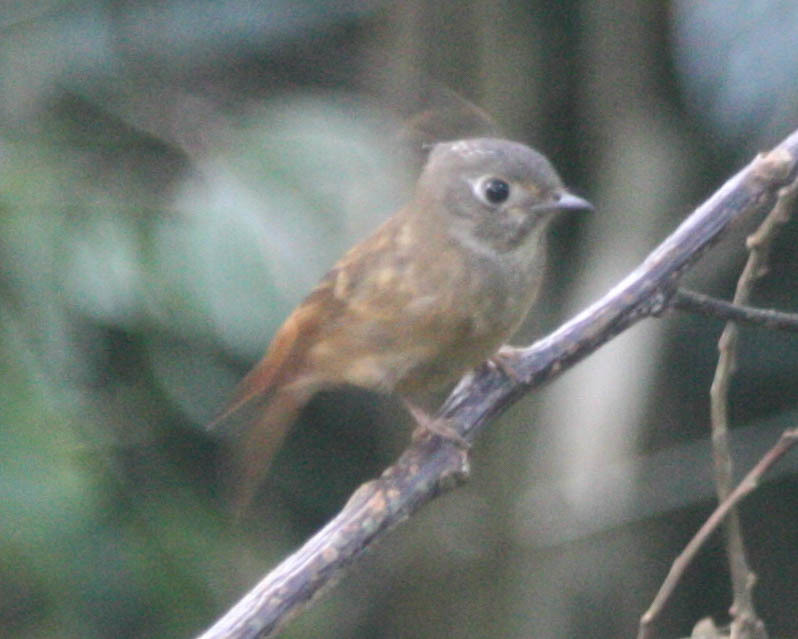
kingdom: Animalia
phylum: Chordata
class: Aves
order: Passeriformes
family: Muscicapidae
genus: Muscicapa
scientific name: Muscicapa ferruginea
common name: Ferruginous flycatcher
